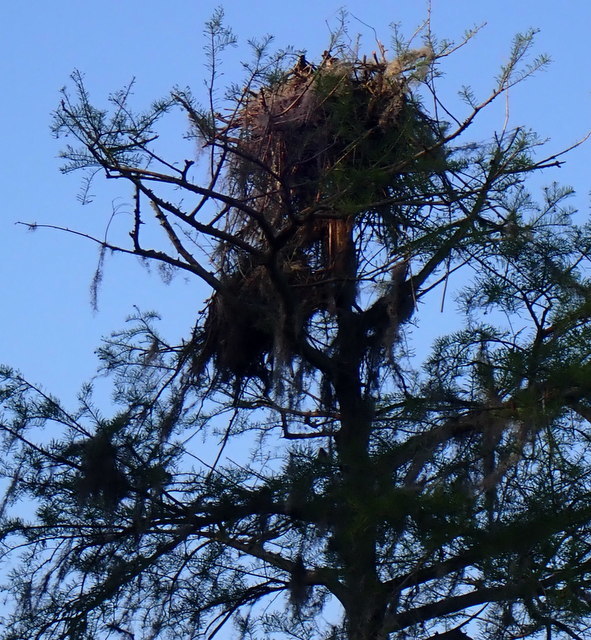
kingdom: Animalia
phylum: Chordata
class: Aves
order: Accipitriformes
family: Pandionidae
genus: Pandion
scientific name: Pandion haliaetus
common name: Osprey
